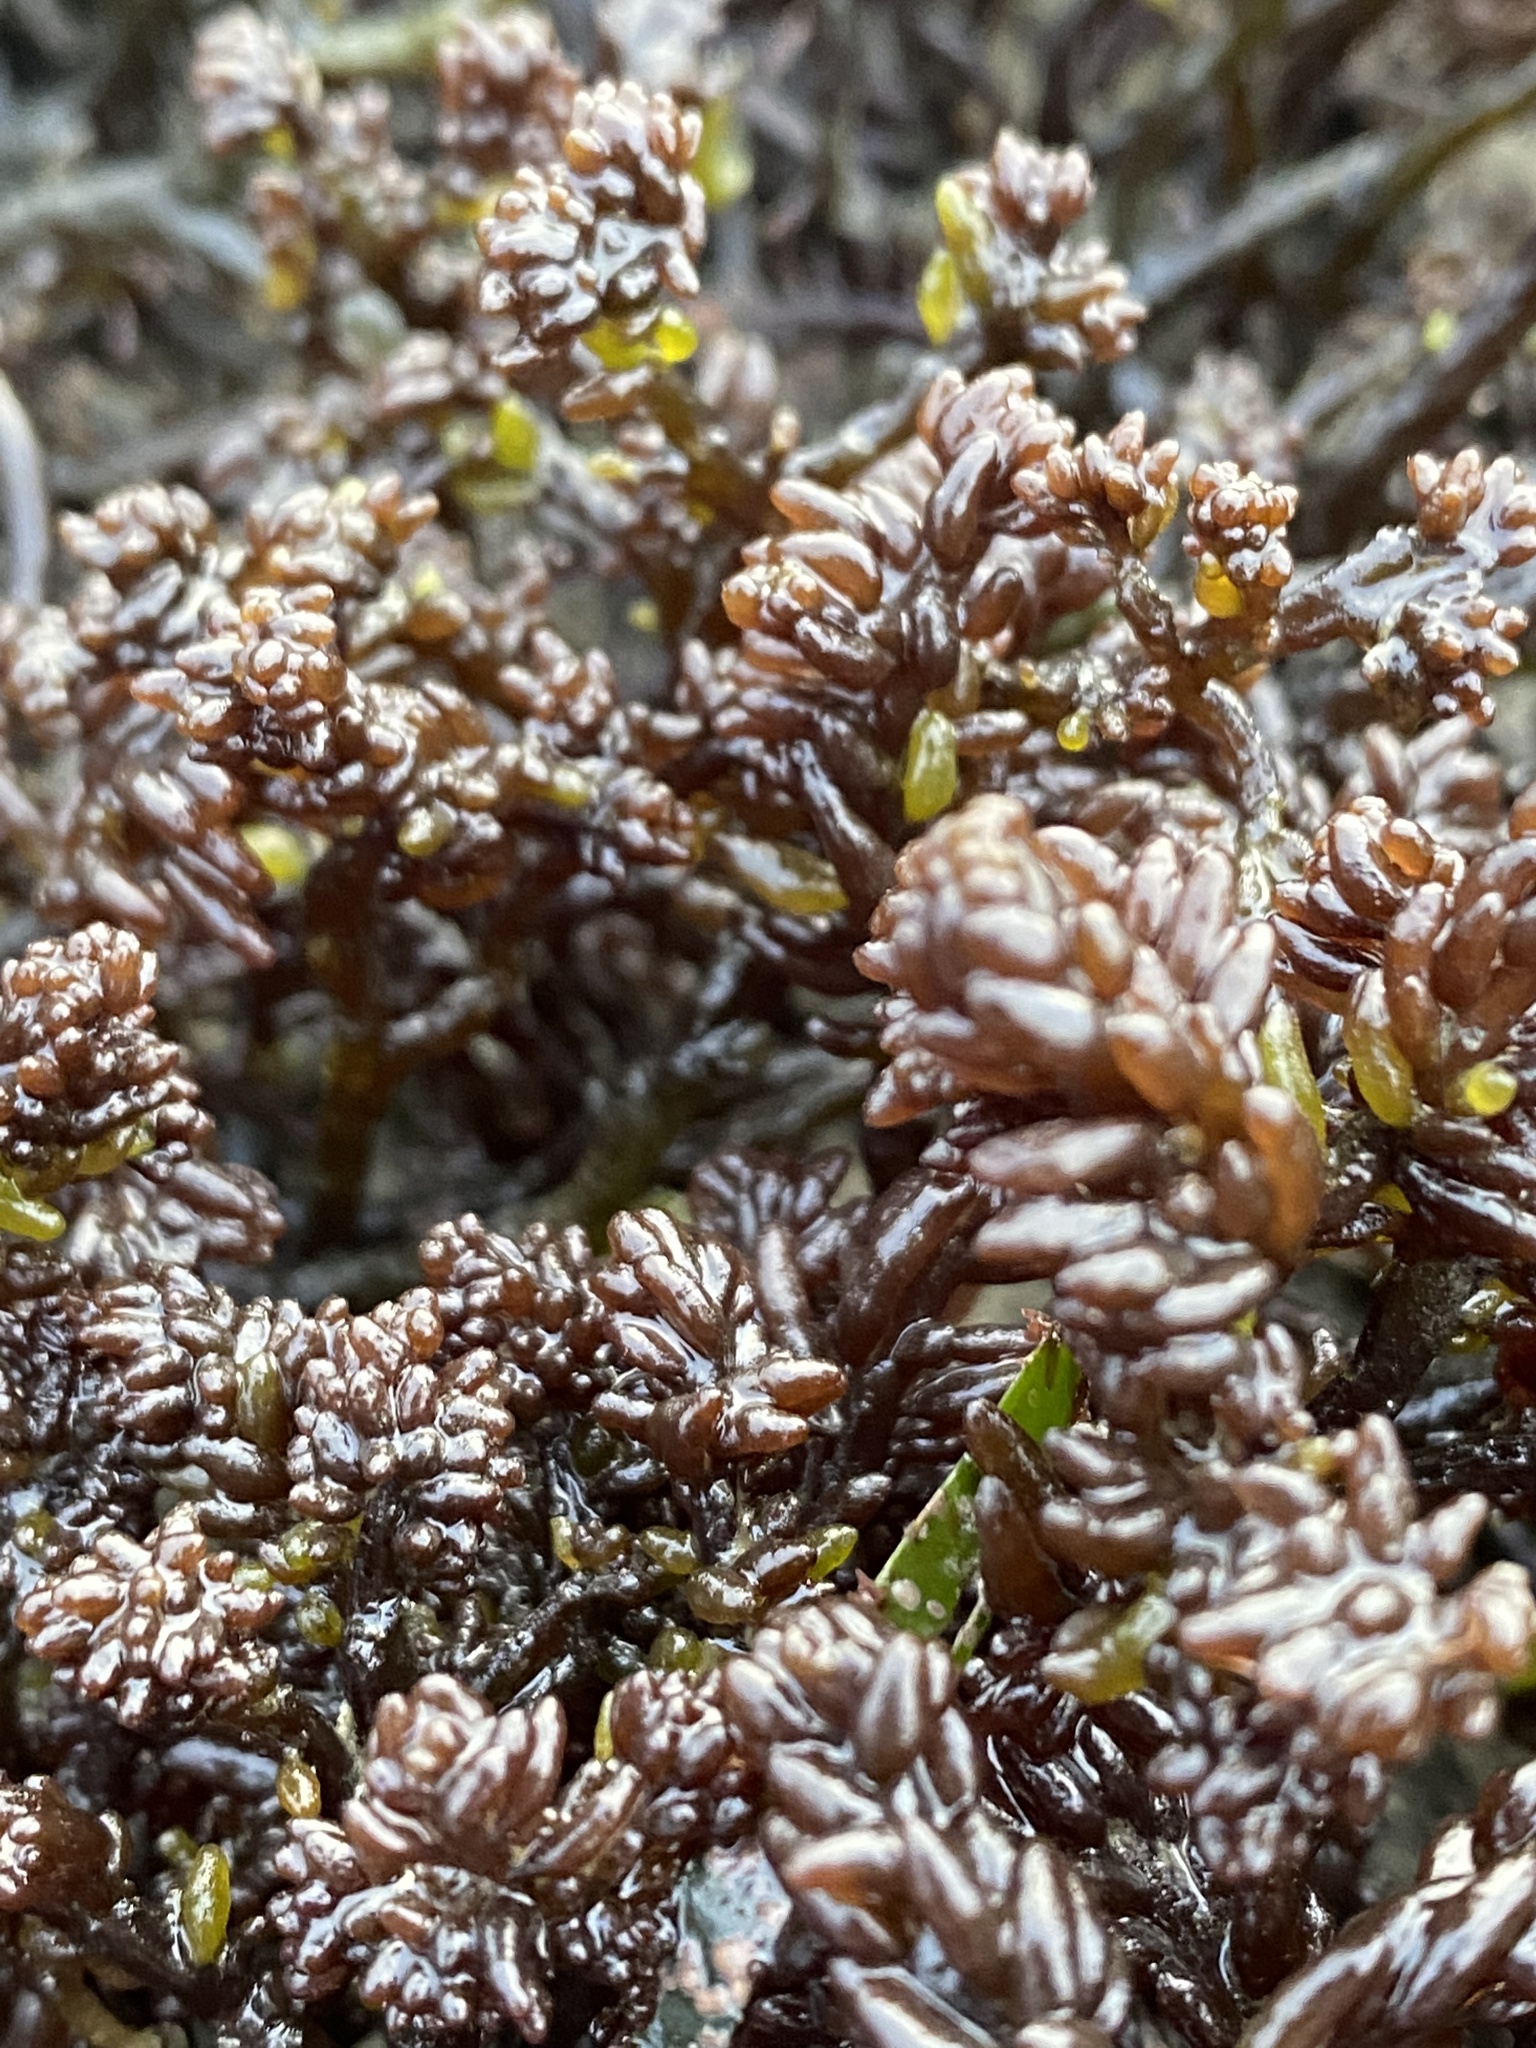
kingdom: Plantae
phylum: Rhodophyta
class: Florideophyceae
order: Rhodymeniales
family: Champiaceae
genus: Neogastroclonium
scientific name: Neogastroclonium subarticulatum
